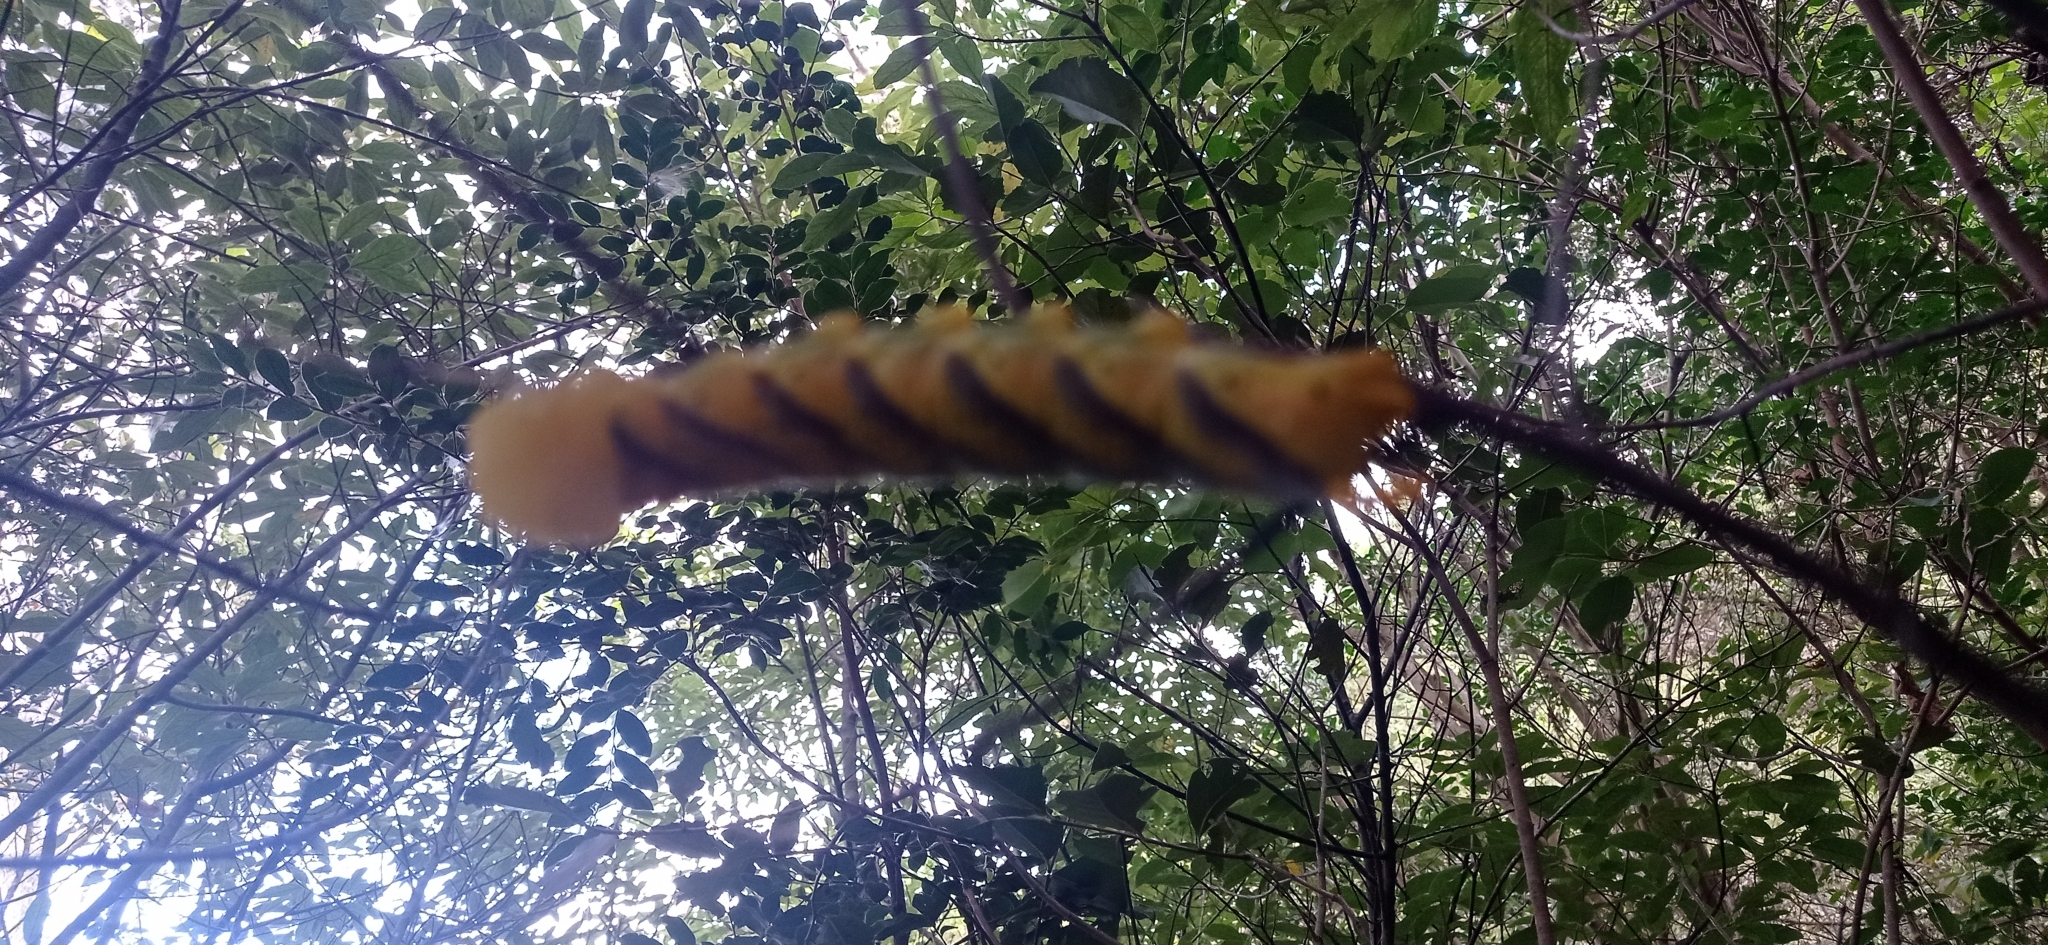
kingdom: Animalia
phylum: Arthropoda
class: Insecta
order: Lepidoptera
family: Sphingidae
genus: Acherontia
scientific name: Acherontia atropos
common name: Death's-head hawk moth
